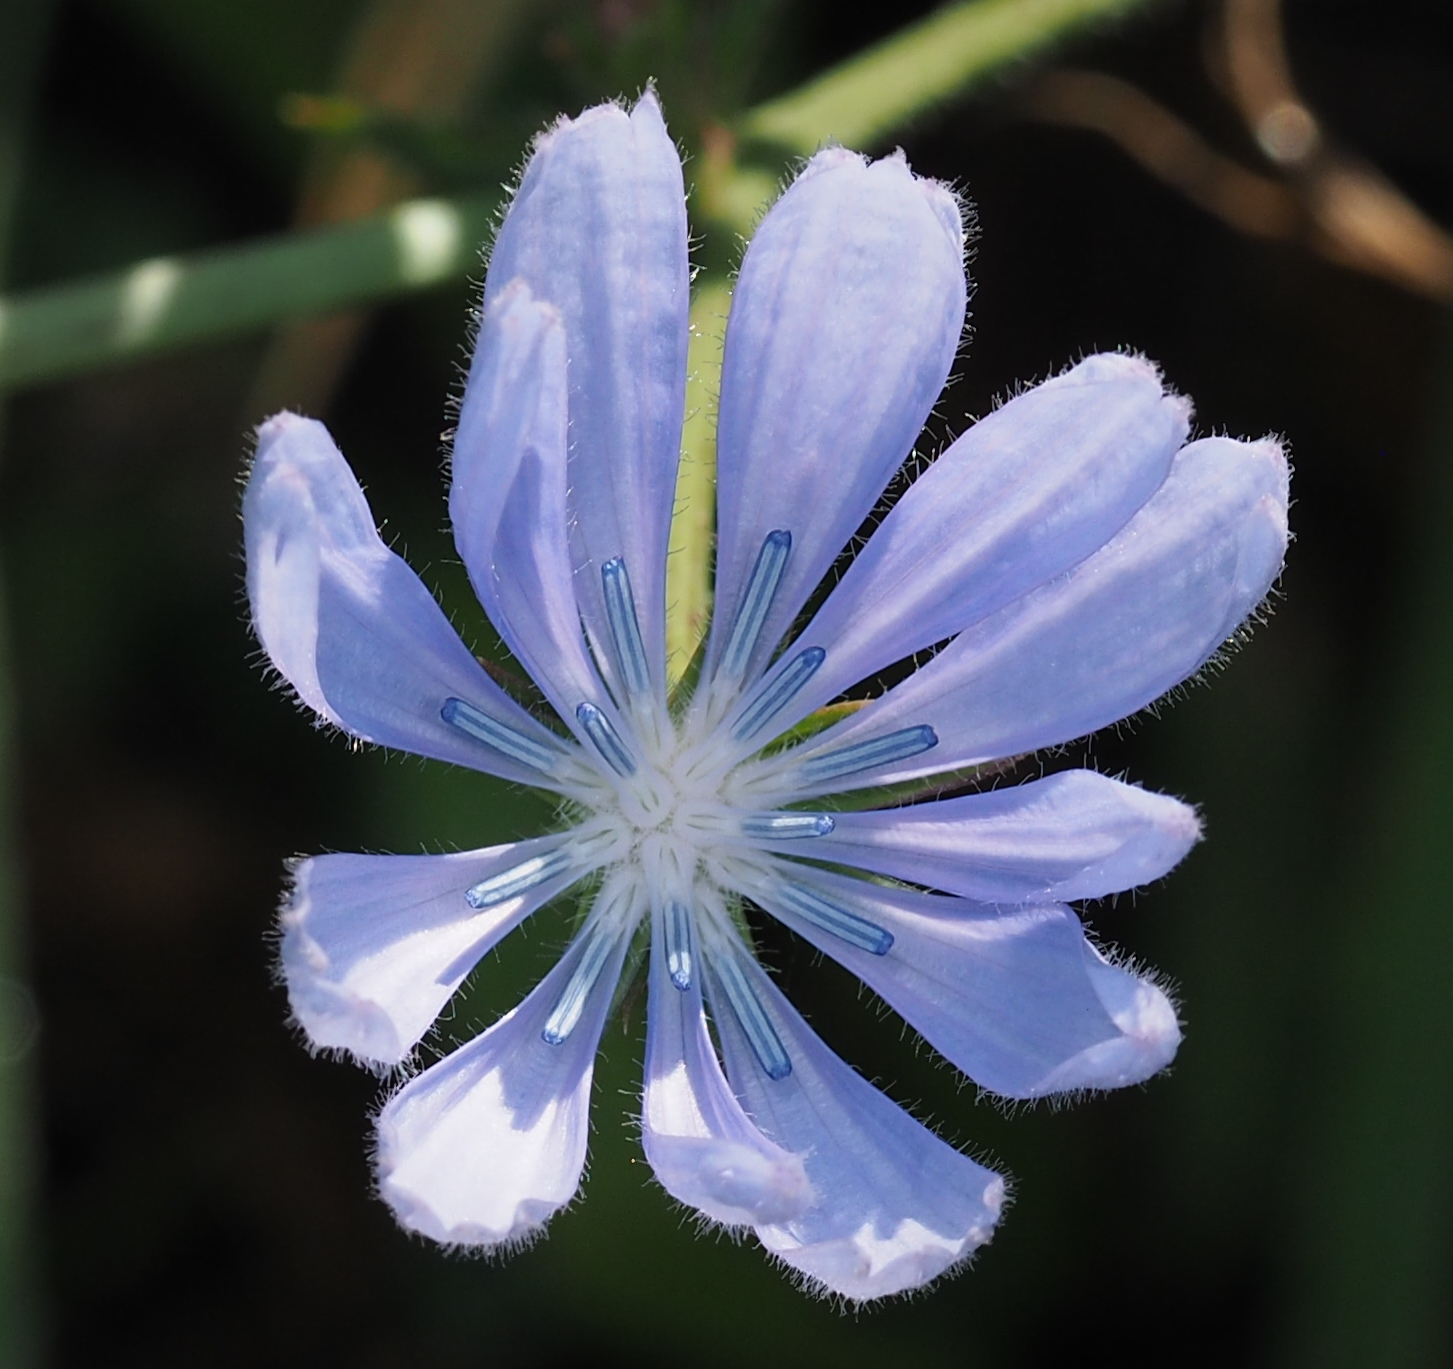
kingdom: Plantae
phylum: Tracheophyta
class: Magnoliopsida
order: Asterales
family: Asteraceae
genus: Cichorium
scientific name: Cichorium intybus
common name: Chicory
